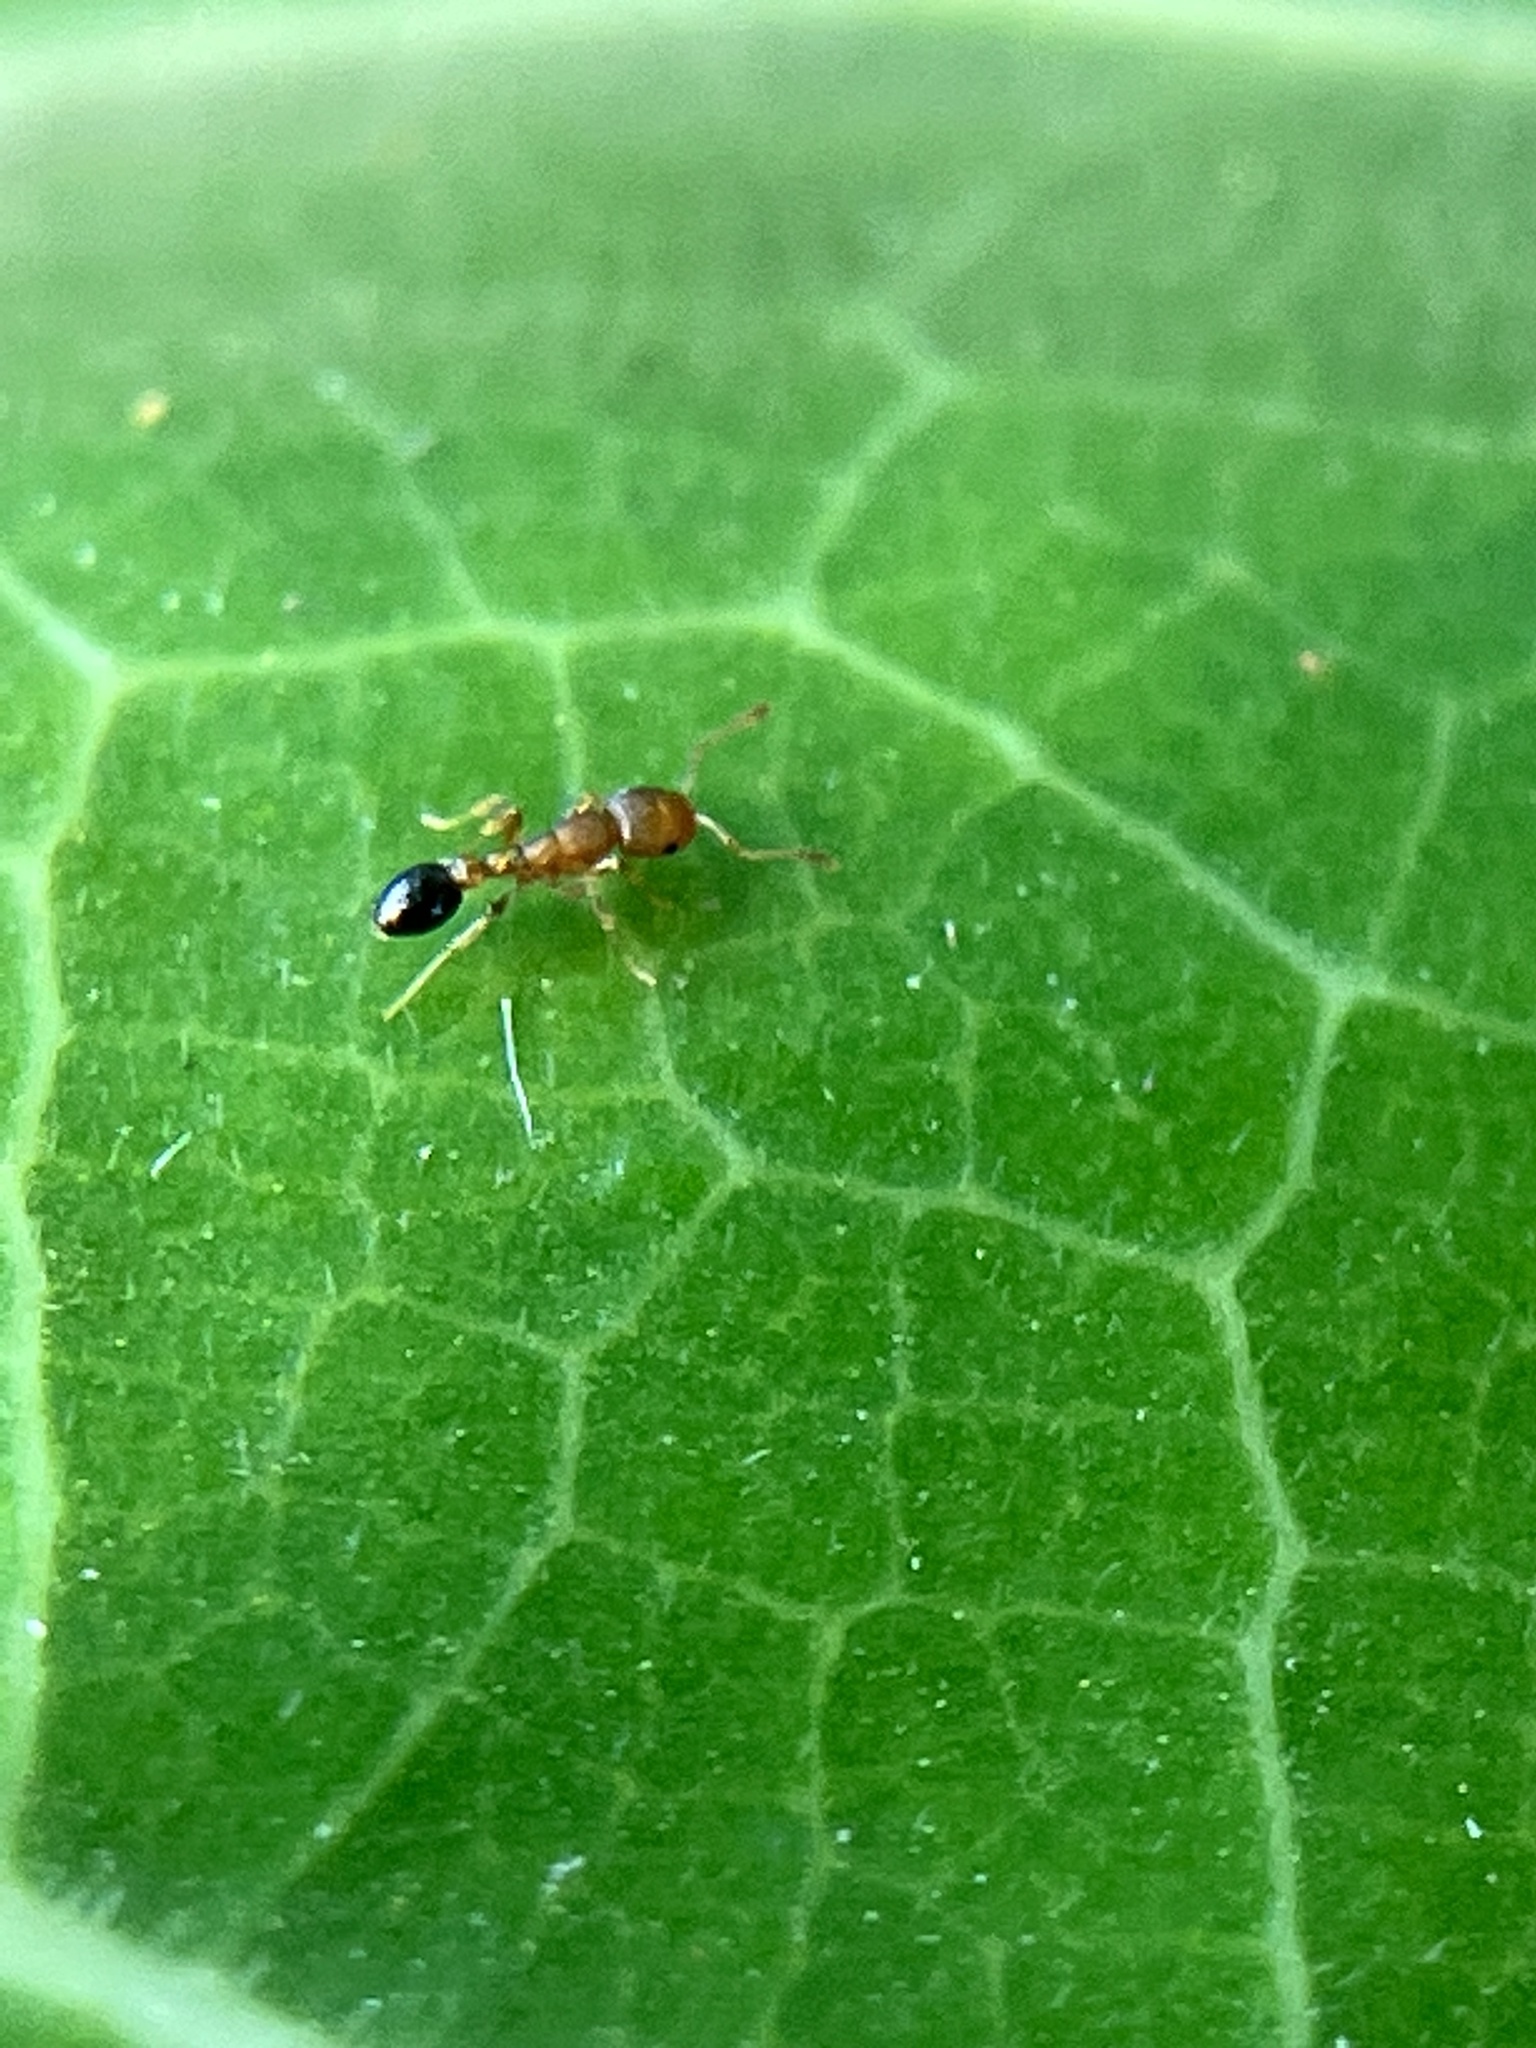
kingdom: Animalia
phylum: Arthropoda
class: Insecta
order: Hymenoptera
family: Formicidae
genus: Cardiocondyla
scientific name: Cardiocondyla shagrinata
